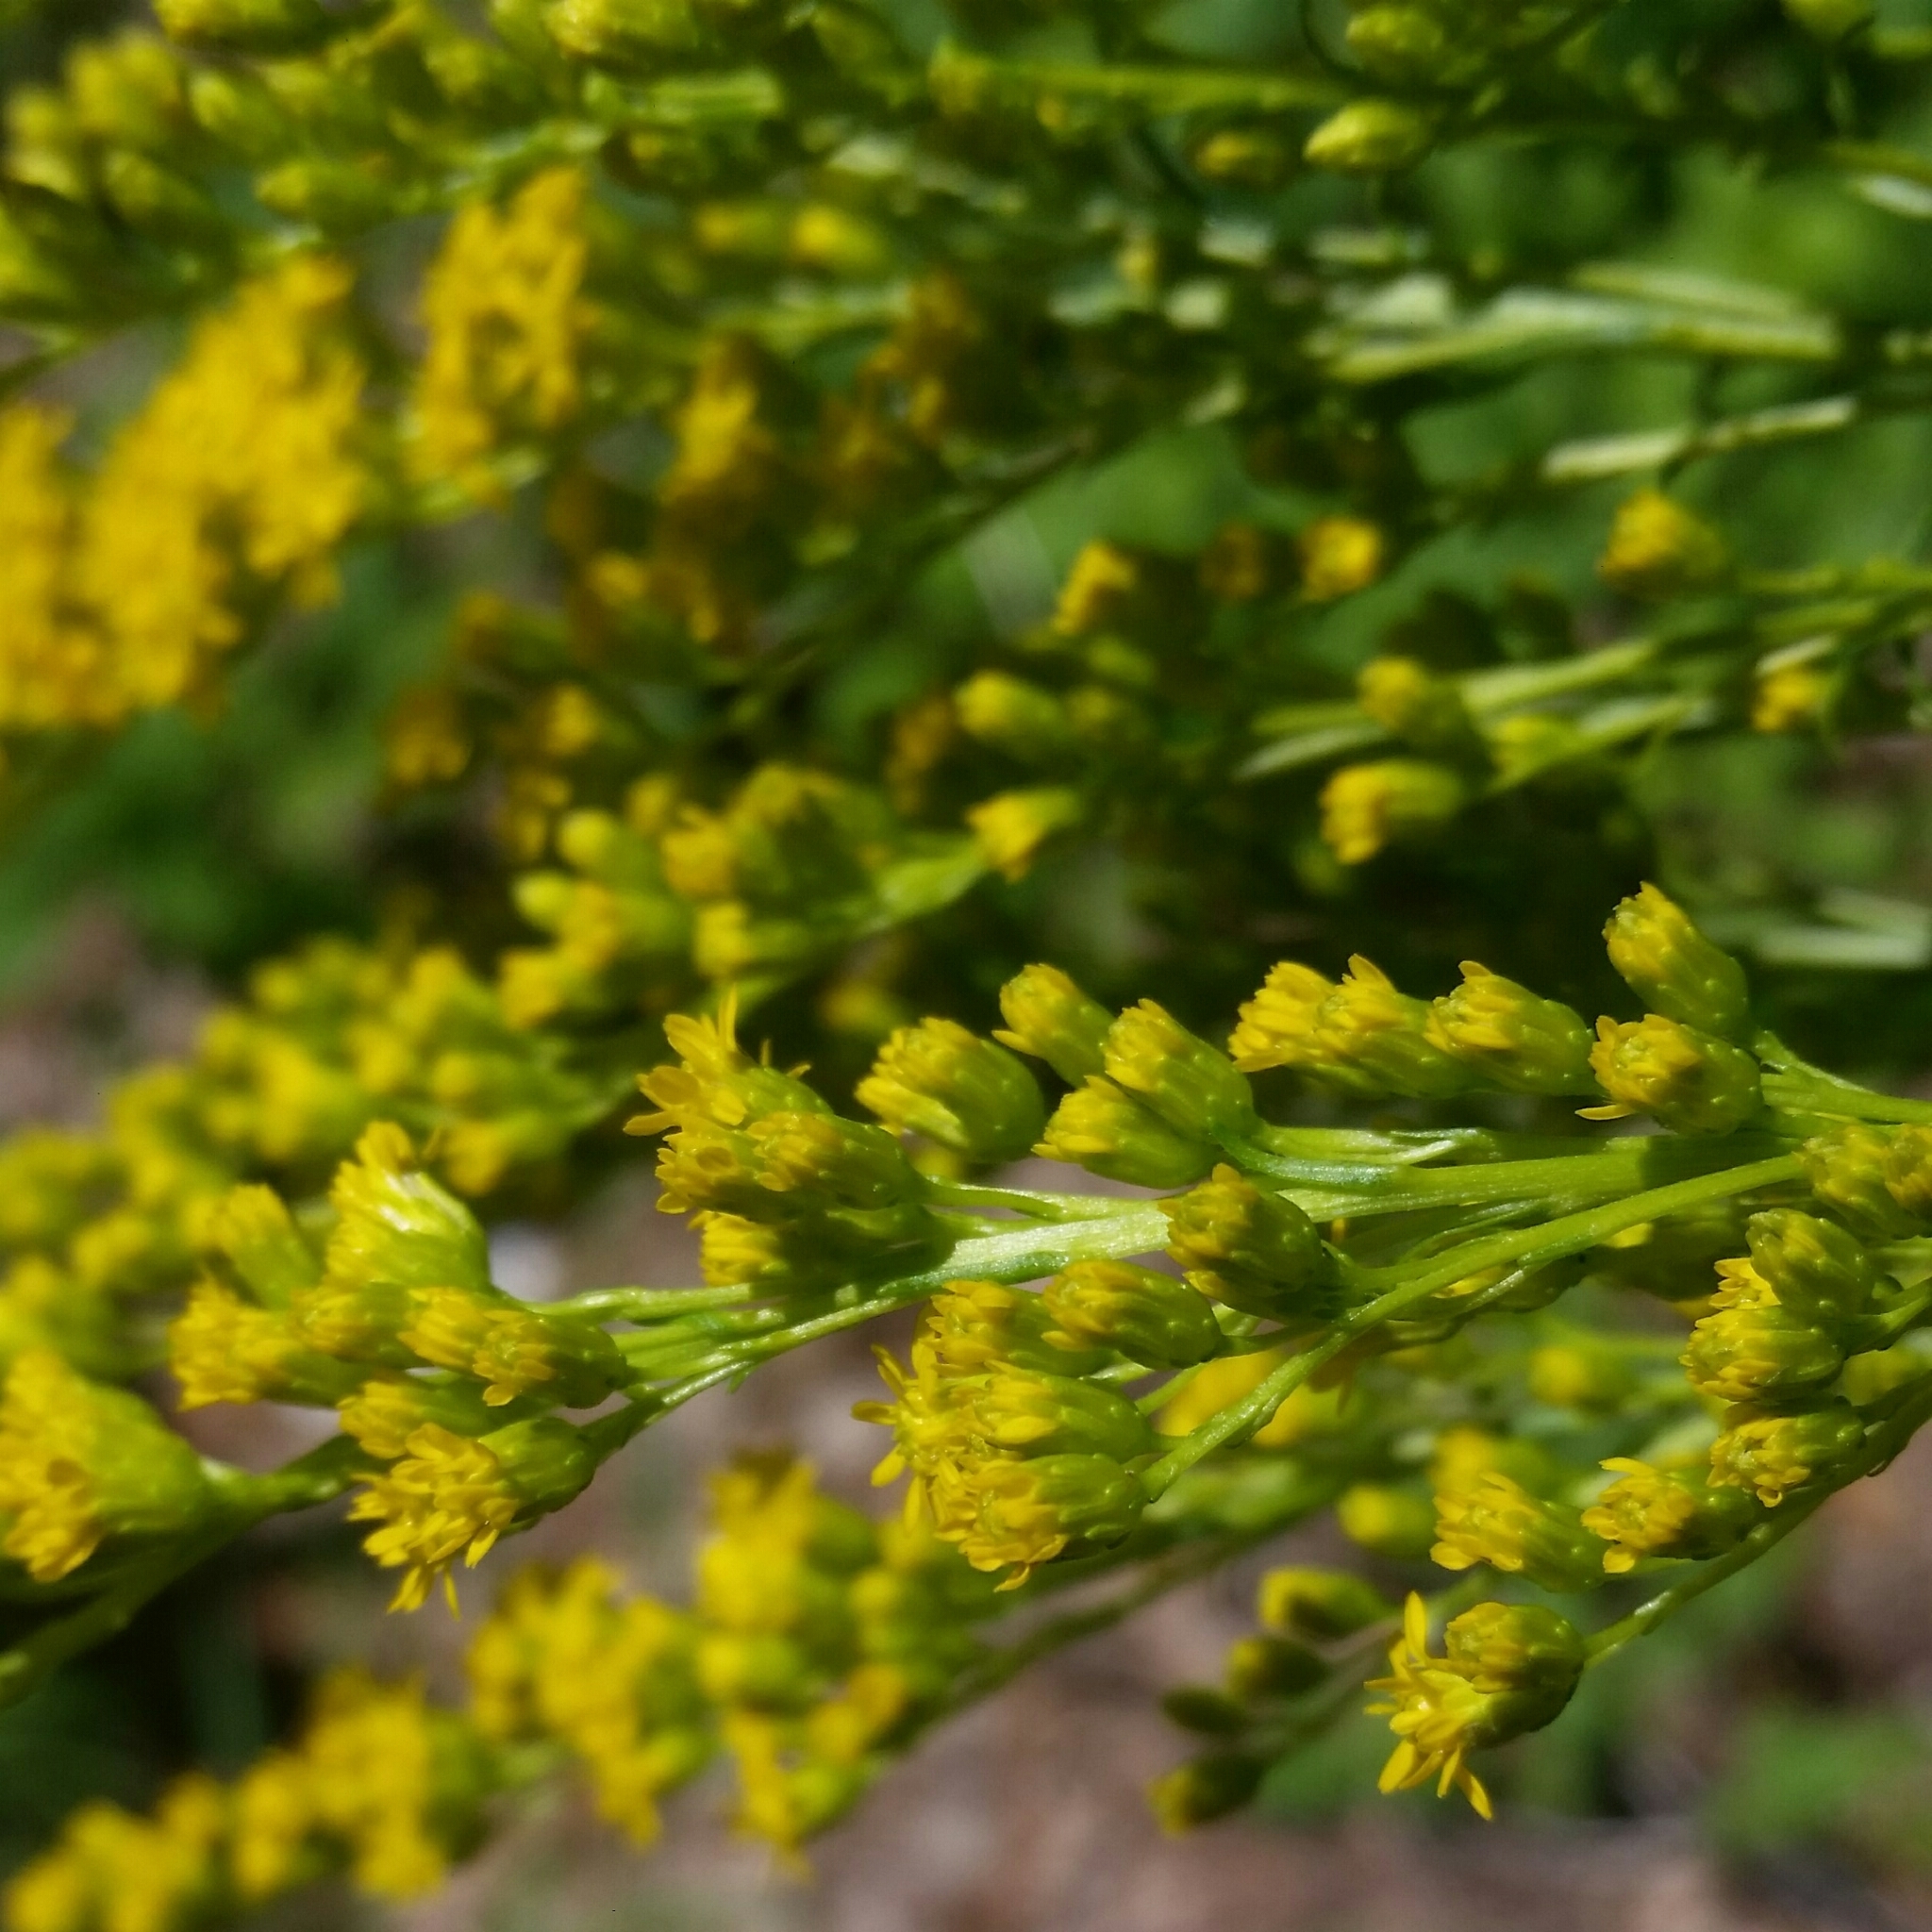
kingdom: Plantae
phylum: Tracheophyta
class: Magnoliopsida
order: Asterales
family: Asteraceae
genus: Solidago
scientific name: Solidago juncea
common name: Early goldenrod
